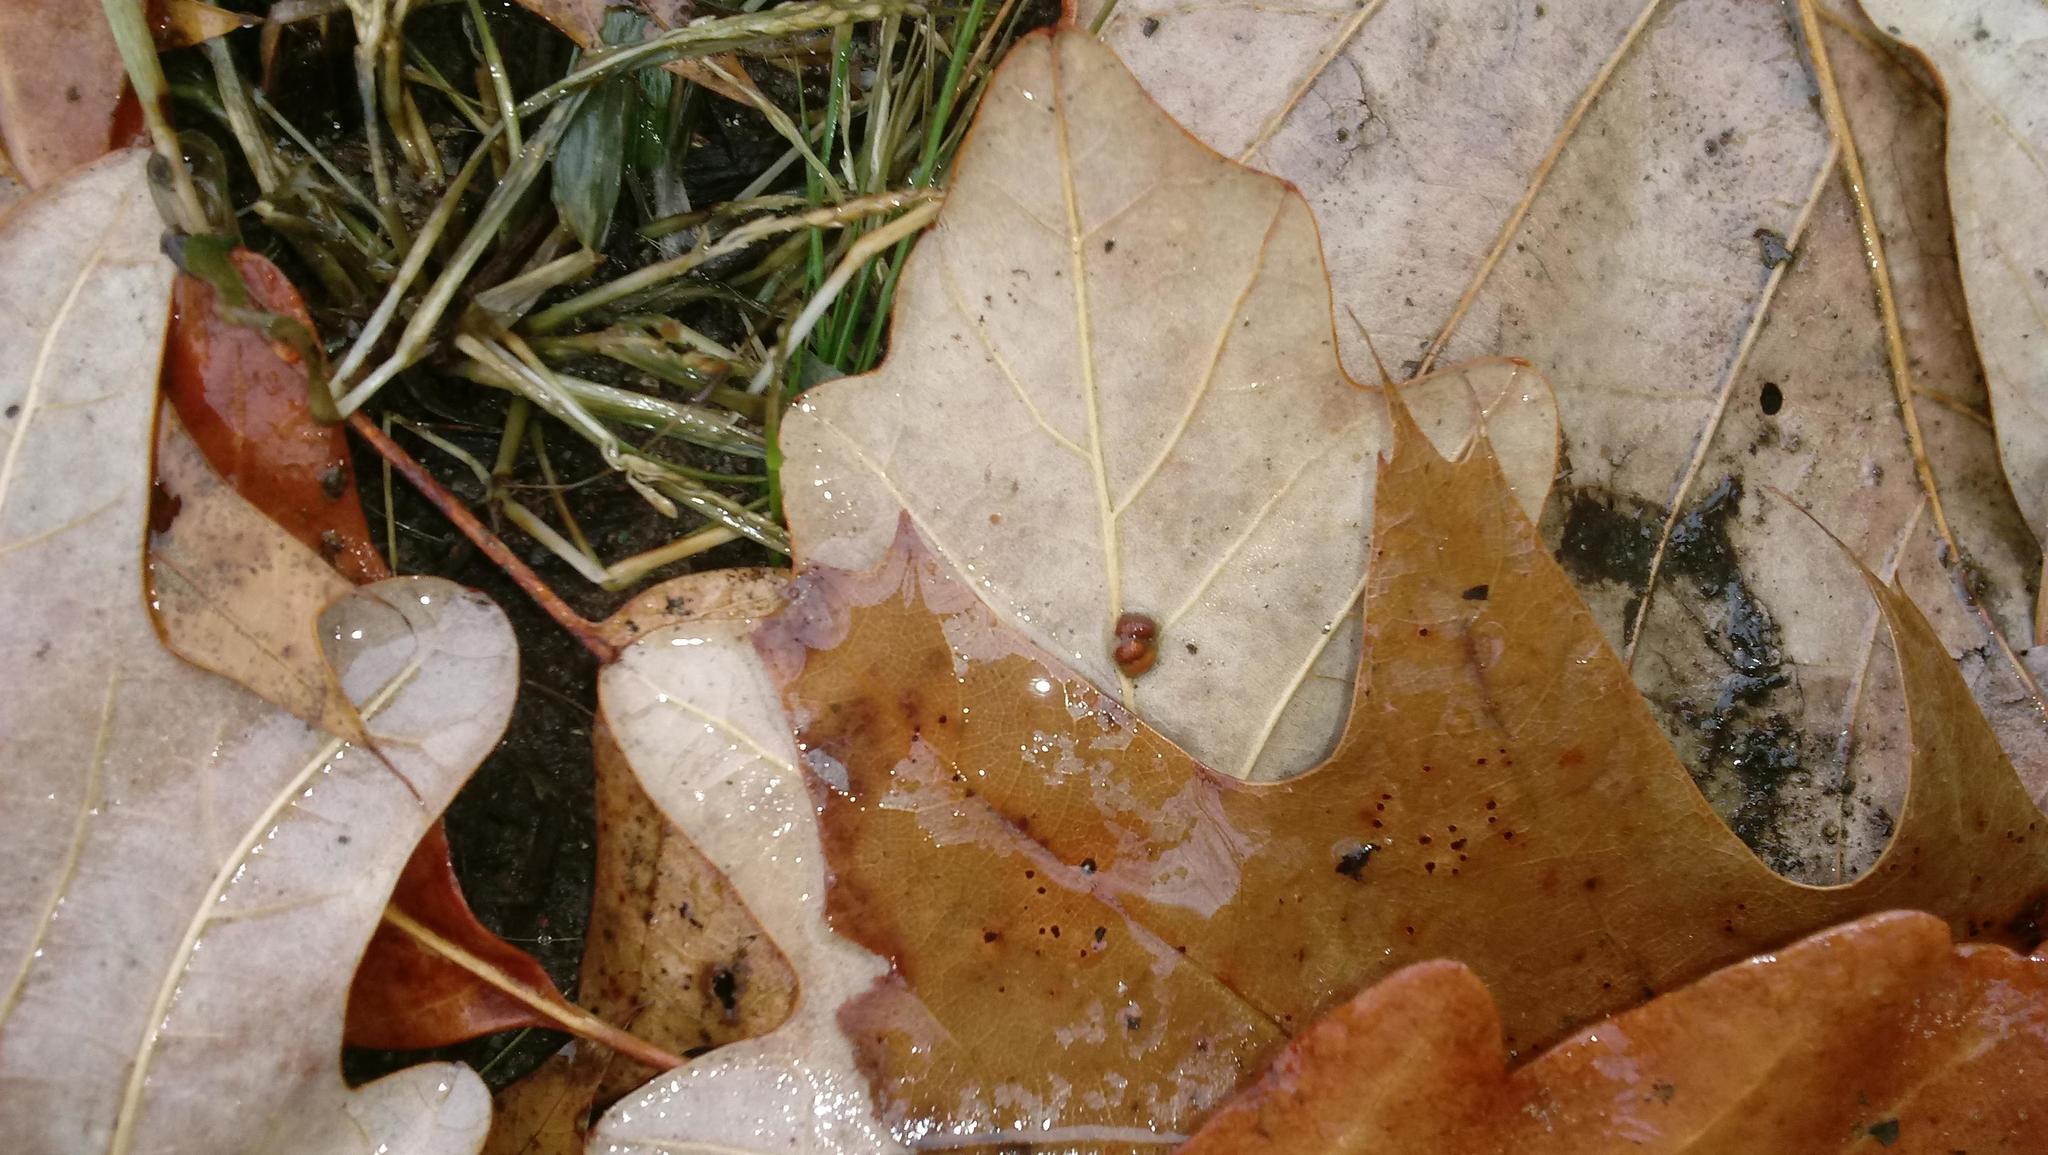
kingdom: Animalia
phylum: Arthropoda
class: Insecta
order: Hymenoptera
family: Cynipidae
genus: Andricus
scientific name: Andricus Druon ignotum
